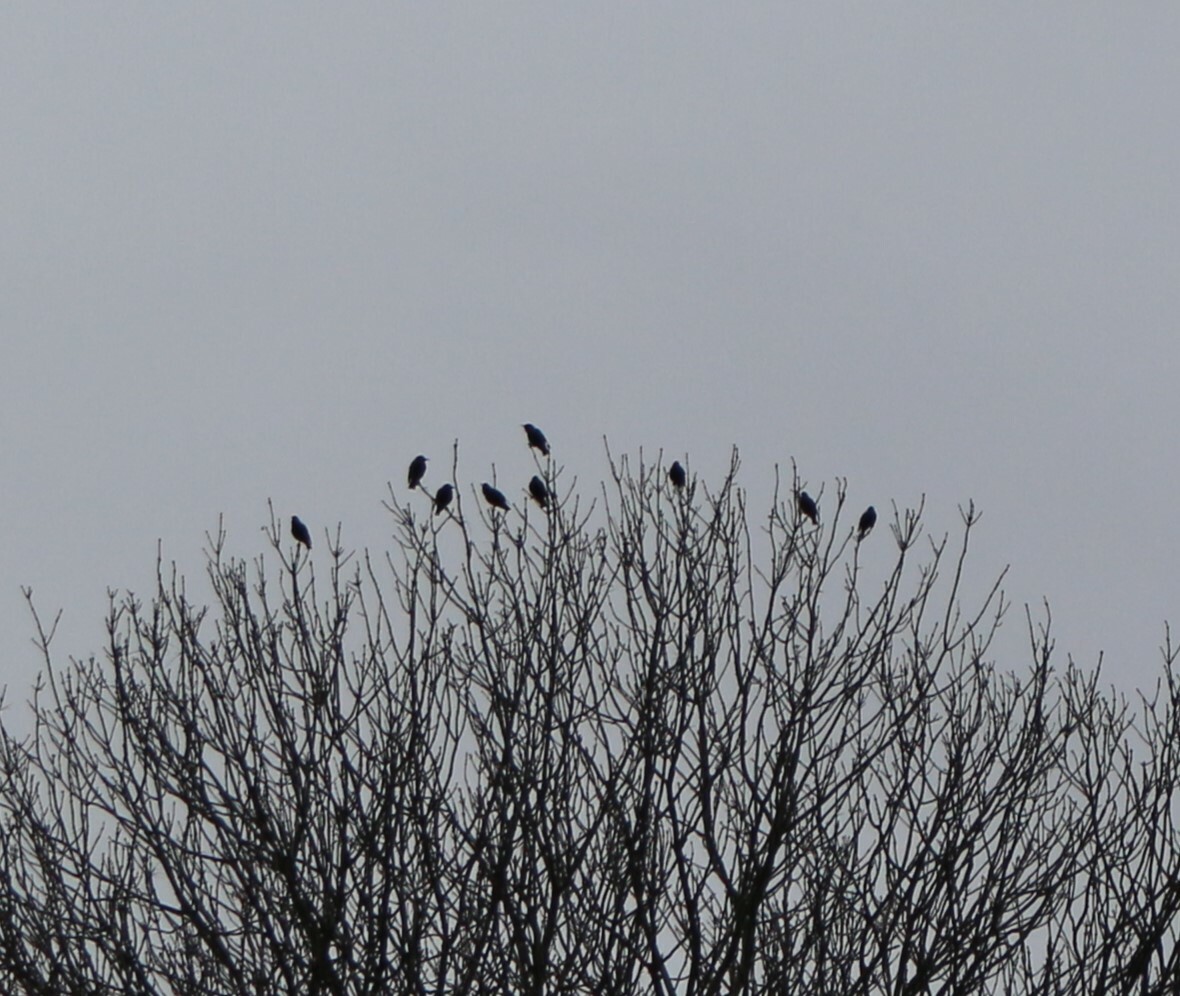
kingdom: Animalia
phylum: Chordata
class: Aves
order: Passeriformes
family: Sturnidae
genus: Sturnus
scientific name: Sturnus vulgaris
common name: Common starling
